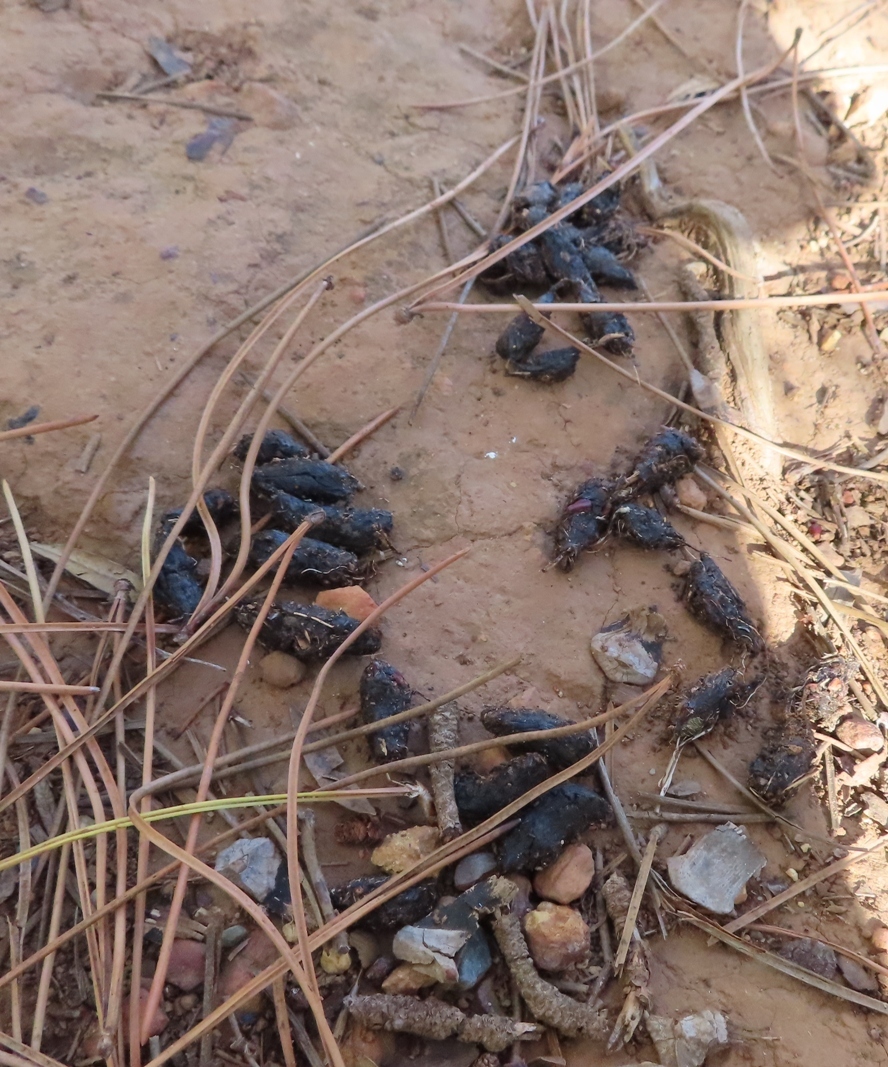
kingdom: Animalia
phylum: Chordata
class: Mammalia
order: Rodentia
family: Hystricidae
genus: Hystrix
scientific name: Hystrix africaeaustralis
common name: Cape porcupine
